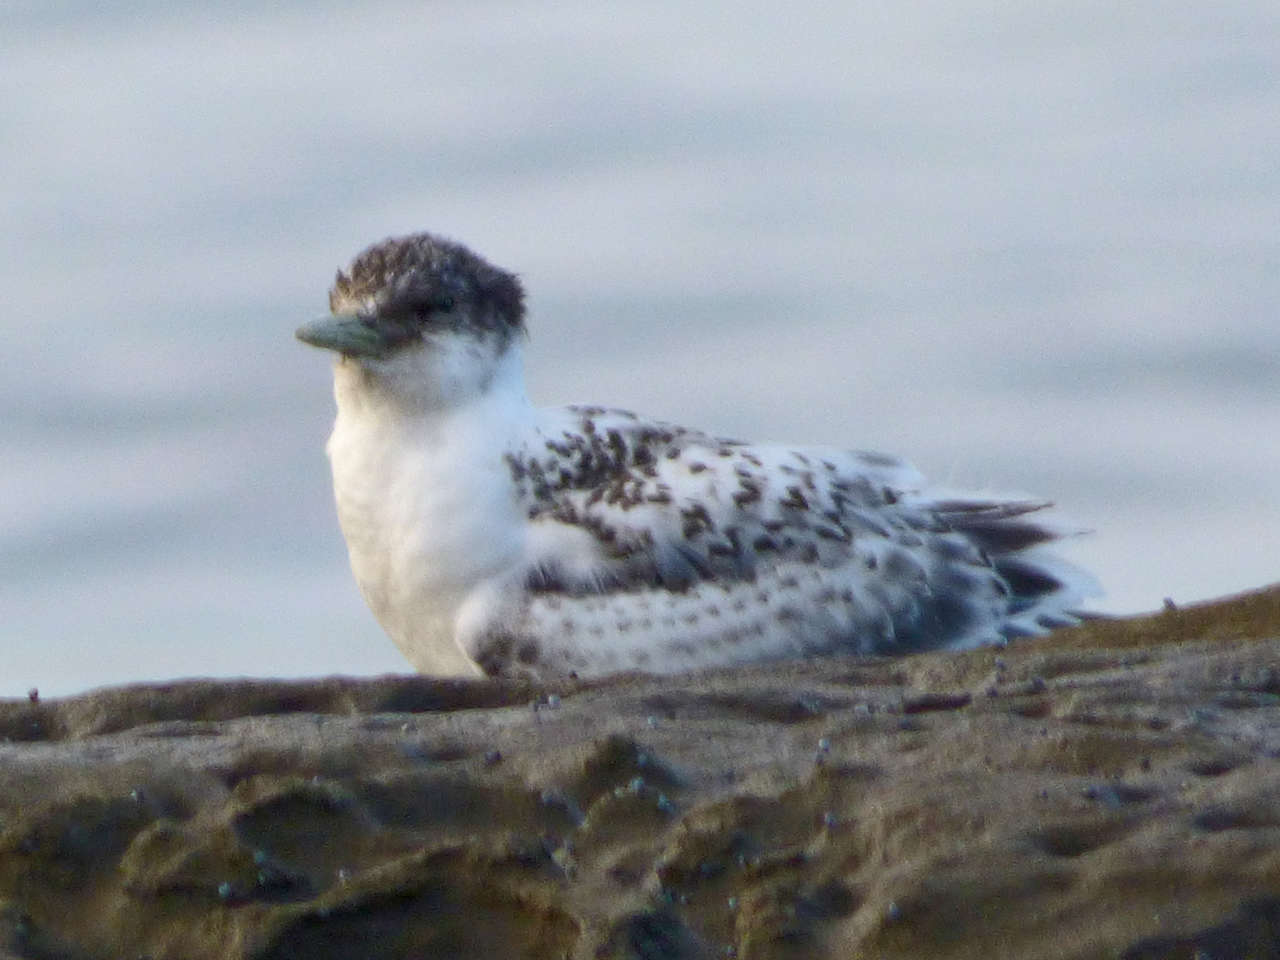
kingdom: Animalia
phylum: Chordata
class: Aves
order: Charadriiformes
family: Laridae
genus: Thalasseus
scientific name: Thalasseus bergii
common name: Greater crested tern
